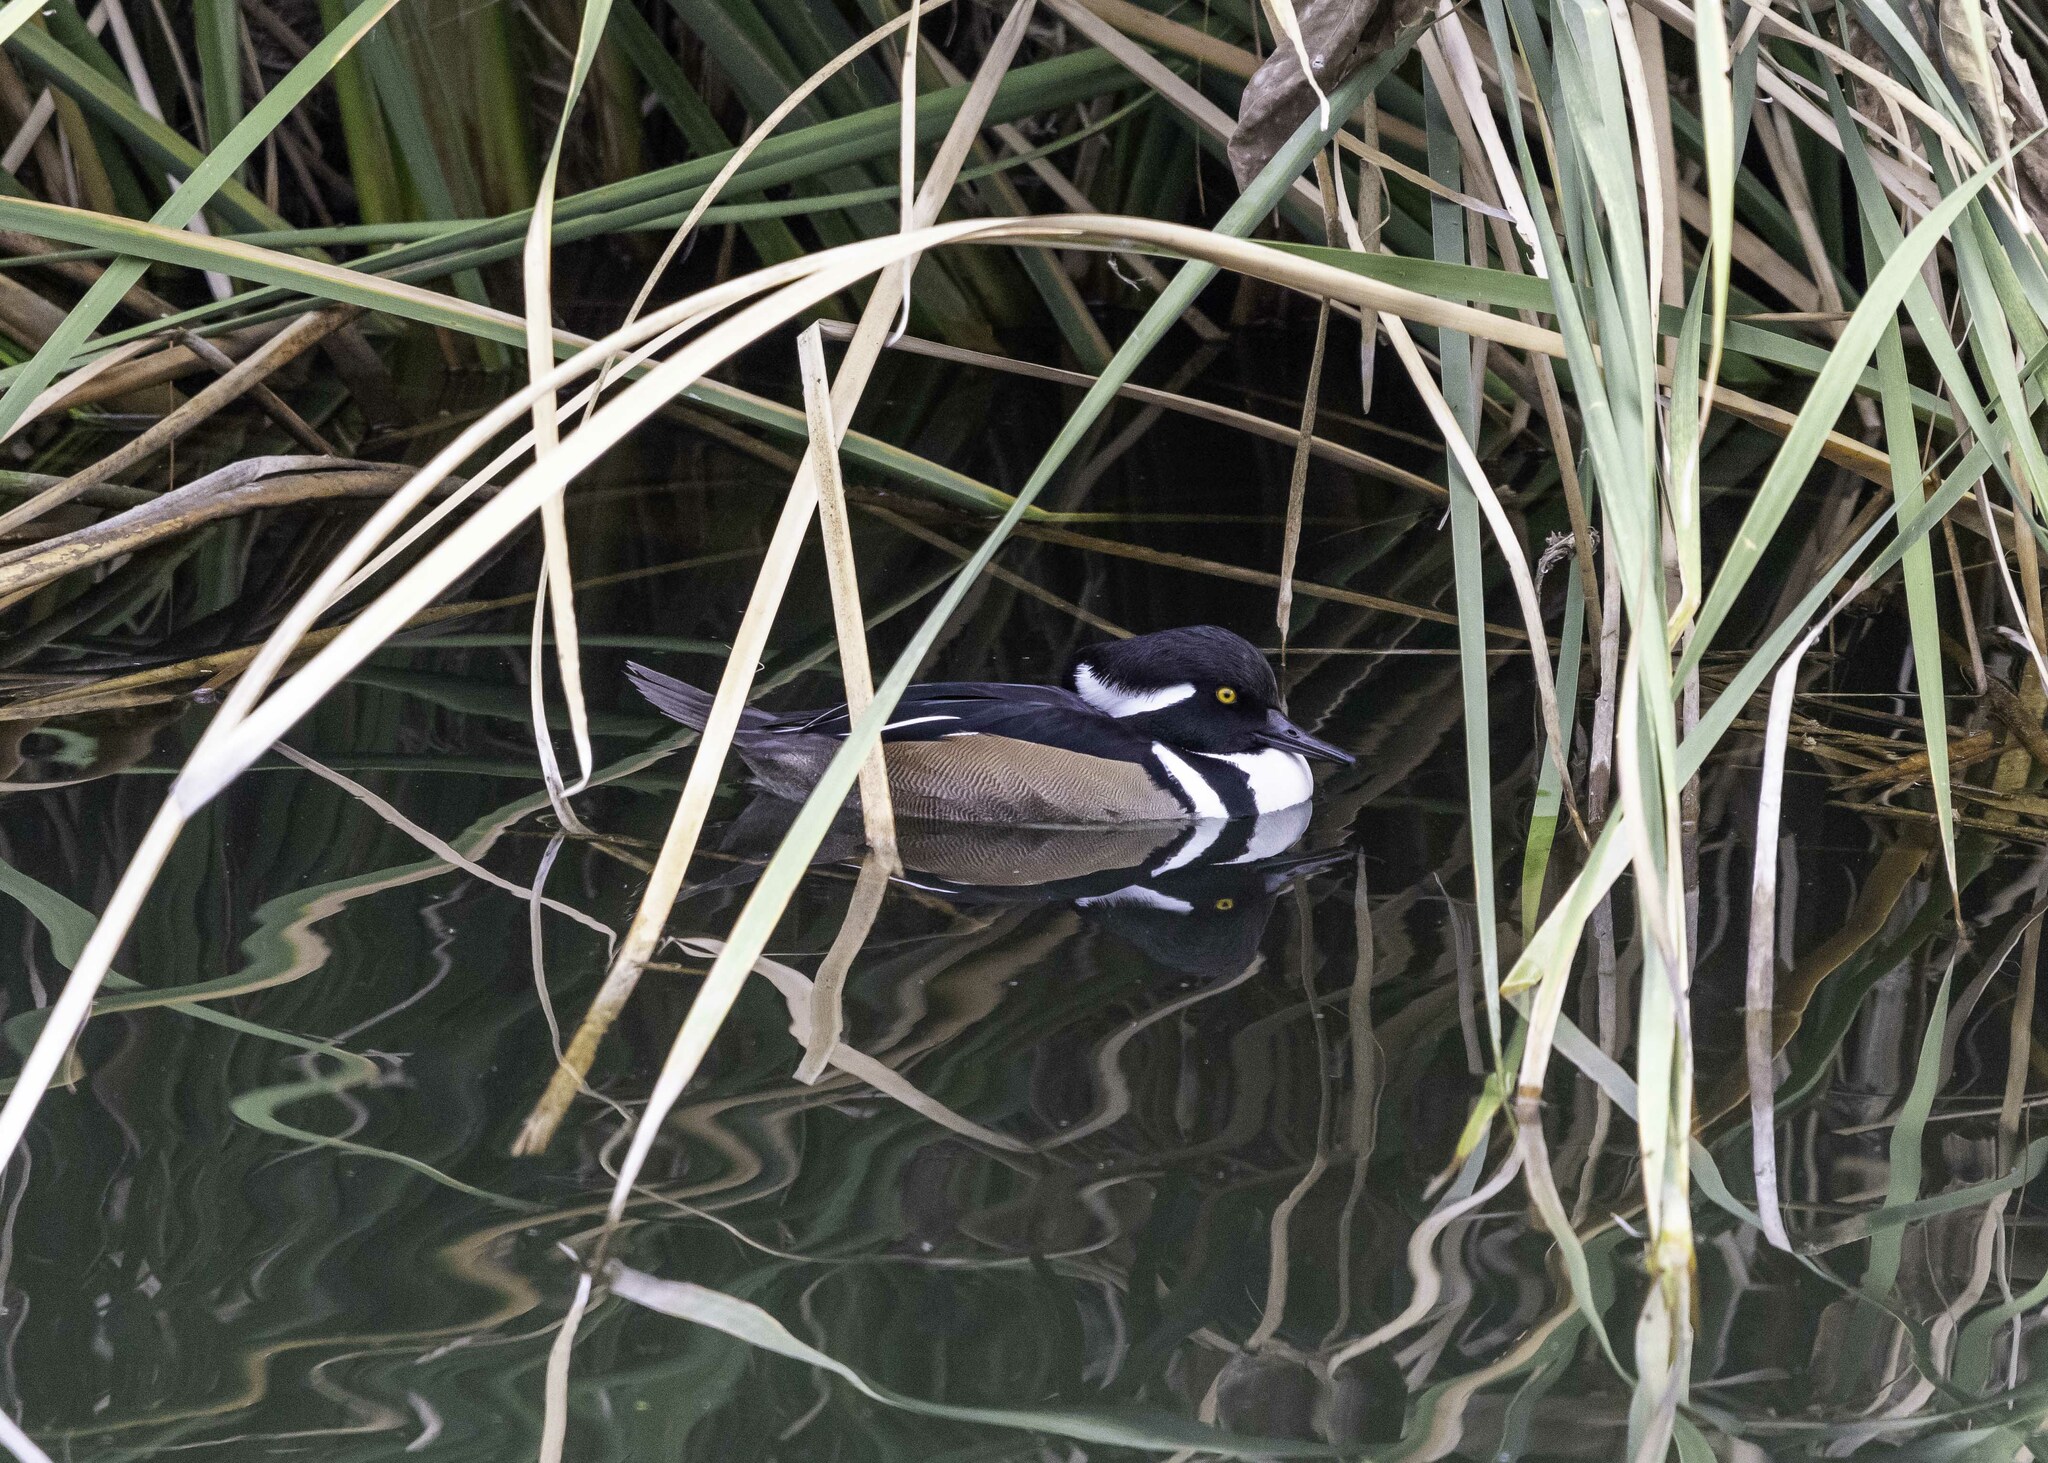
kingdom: Animalia
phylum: Chordata
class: Aves
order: Anseriformes
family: Anatidae
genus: Lophodytes
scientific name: Lophodytes cucullatus
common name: Hooded merganser
